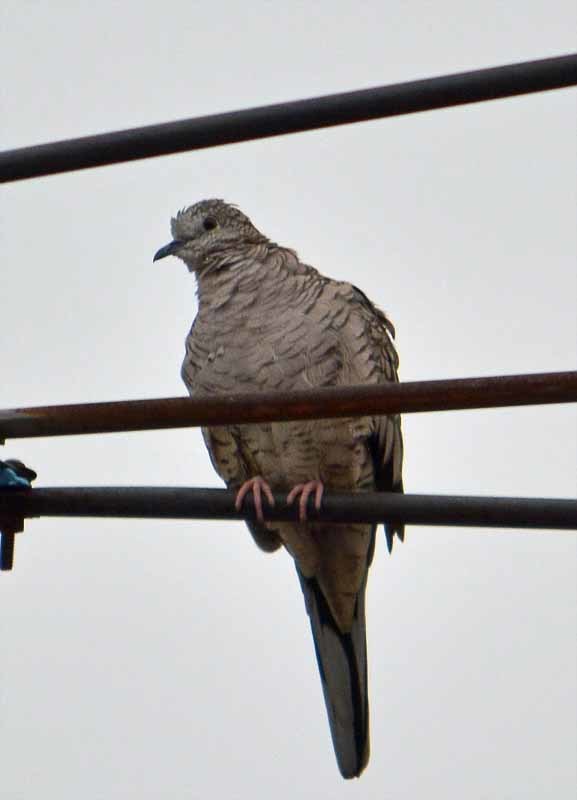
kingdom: Animalia
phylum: Chordata
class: Aves
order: Columbiformes
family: Columbidae
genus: Columbina
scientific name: Columbina inca
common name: Inca dove
